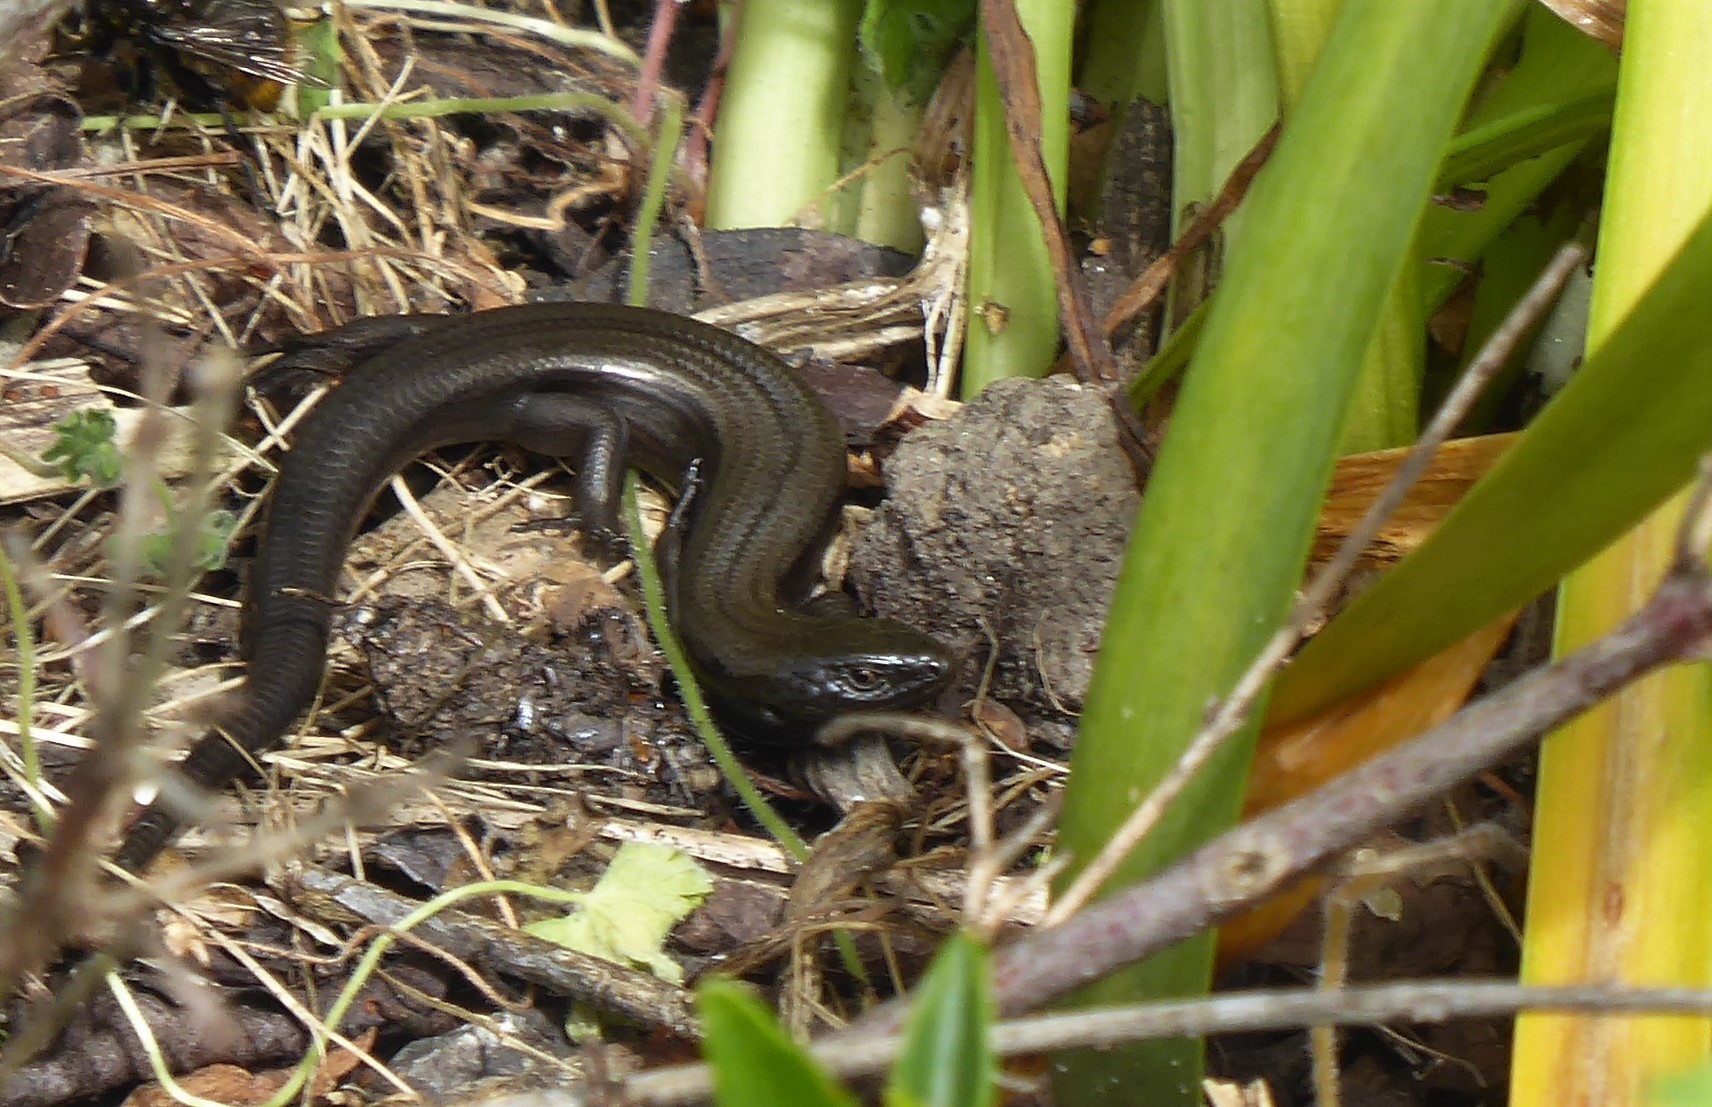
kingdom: Animalia
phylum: Chordata
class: Squamata
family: Scincidae
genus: Oligosoma
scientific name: Oligosoma polychroma
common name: Common new zealand skink
